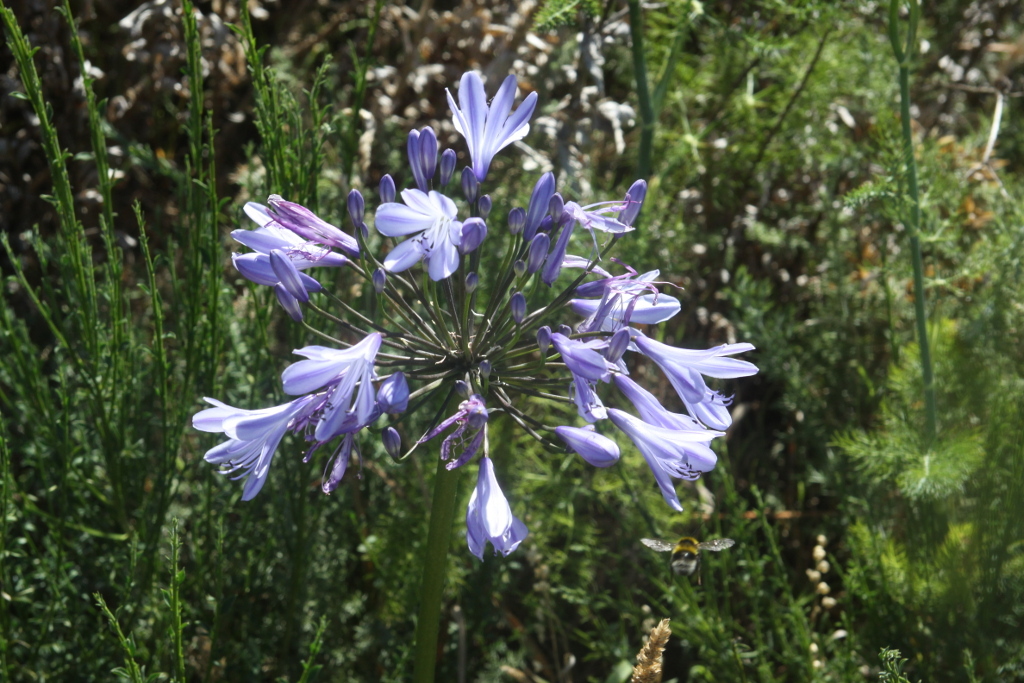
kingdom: Plantae
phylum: Tracheophyta
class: Liliopsida
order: Asparagales
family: Amaryllidaceae
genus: Agapanthus
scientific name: Agapanthus praecox
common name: African-lily
